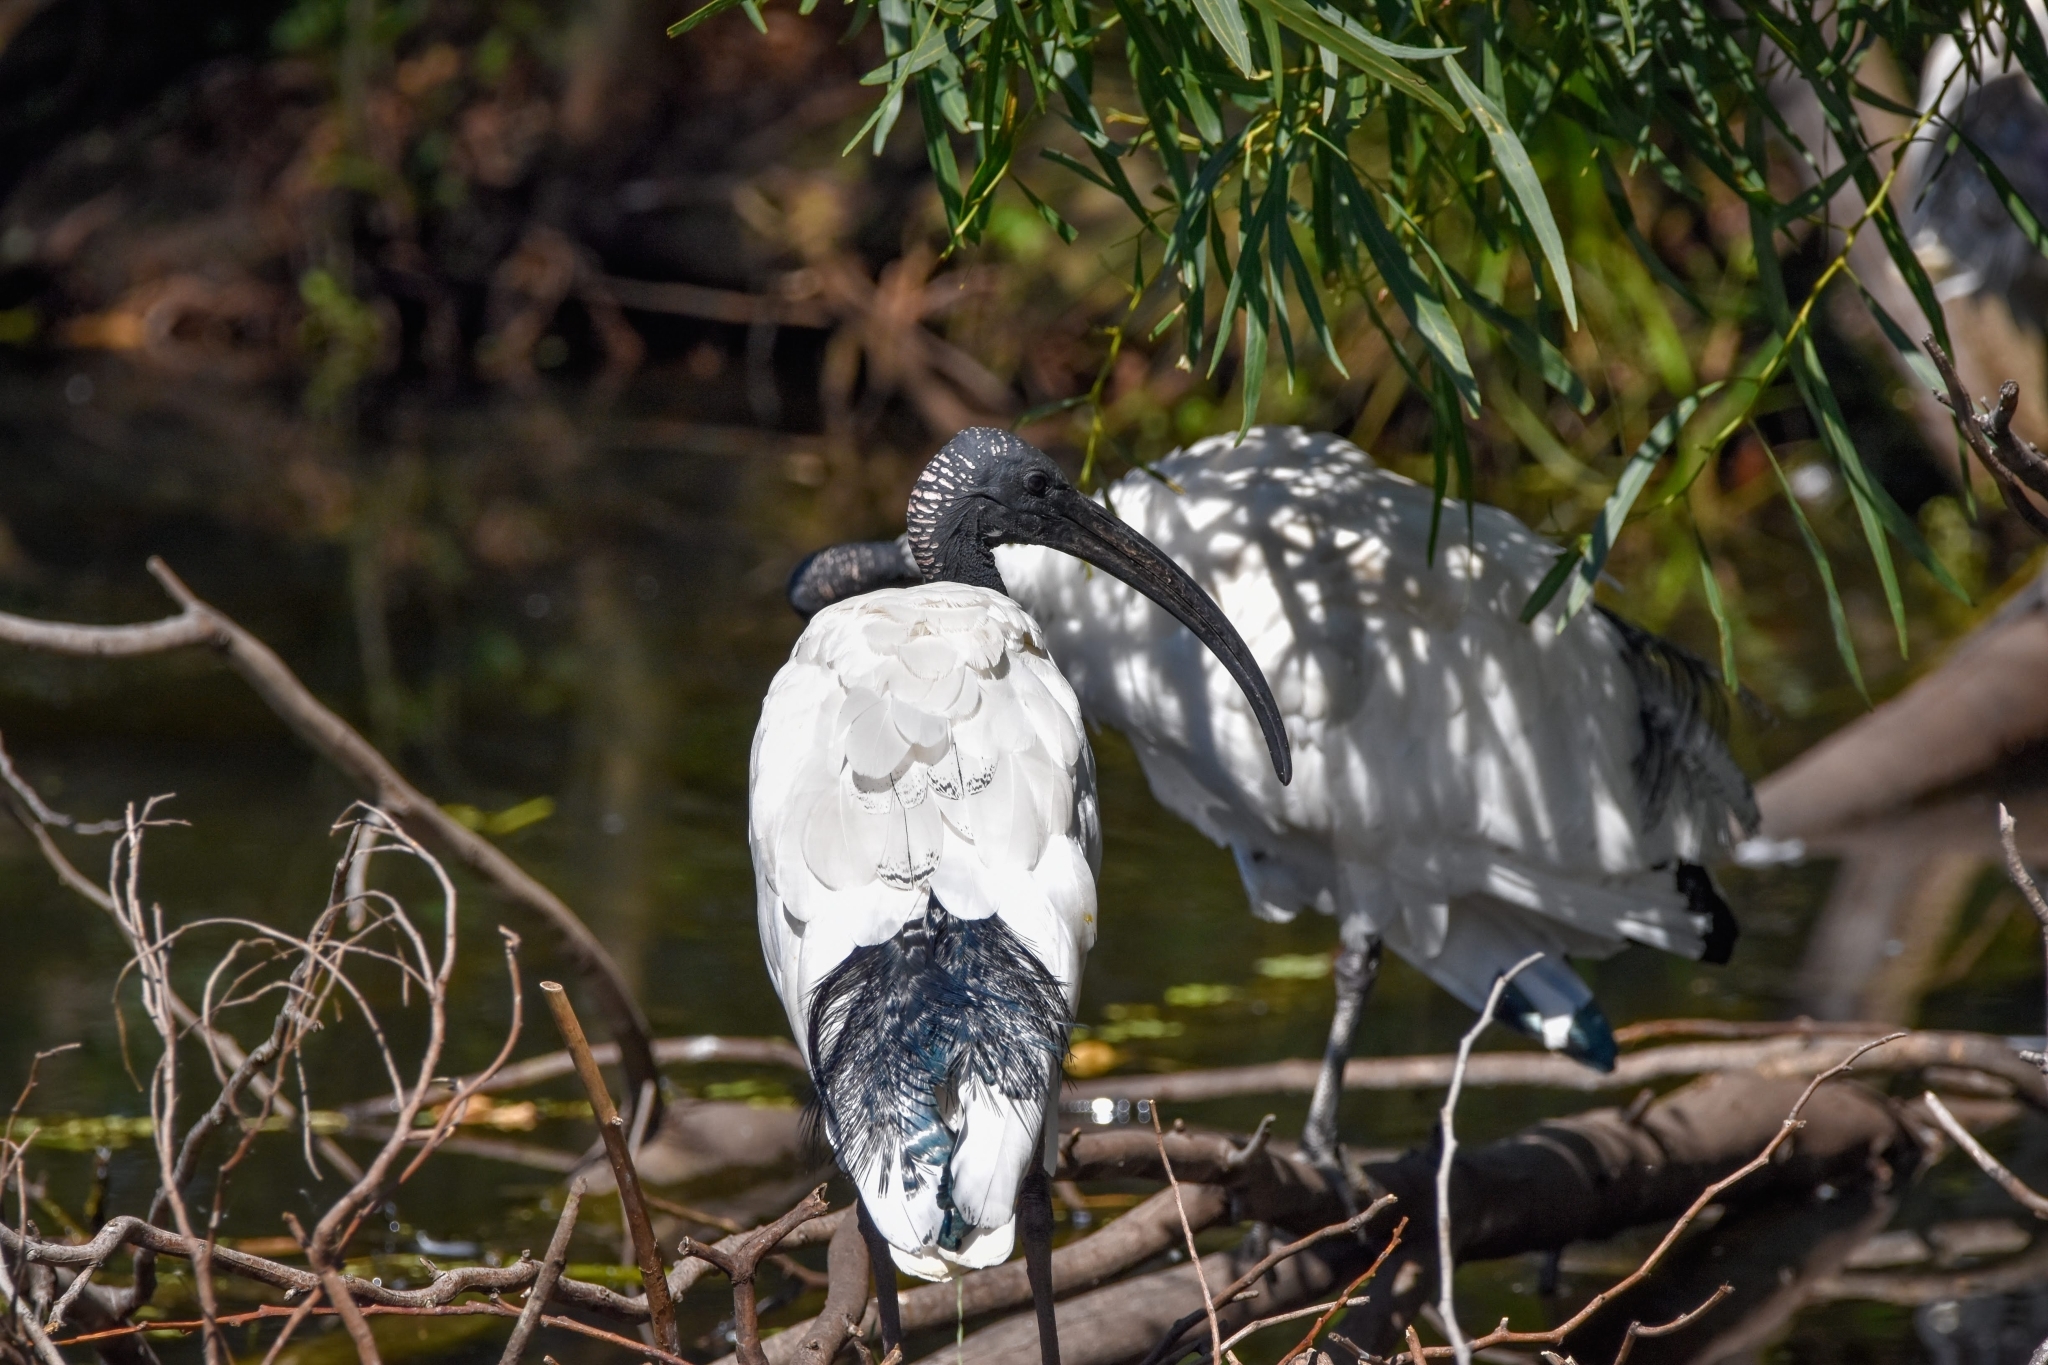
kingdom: Animalia
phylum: Chordata
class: Aves
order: Pelecaniformes
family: Threskiornithidae
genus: Threskiornis
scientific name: Threskiornis molucca
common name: Australian white ibis
